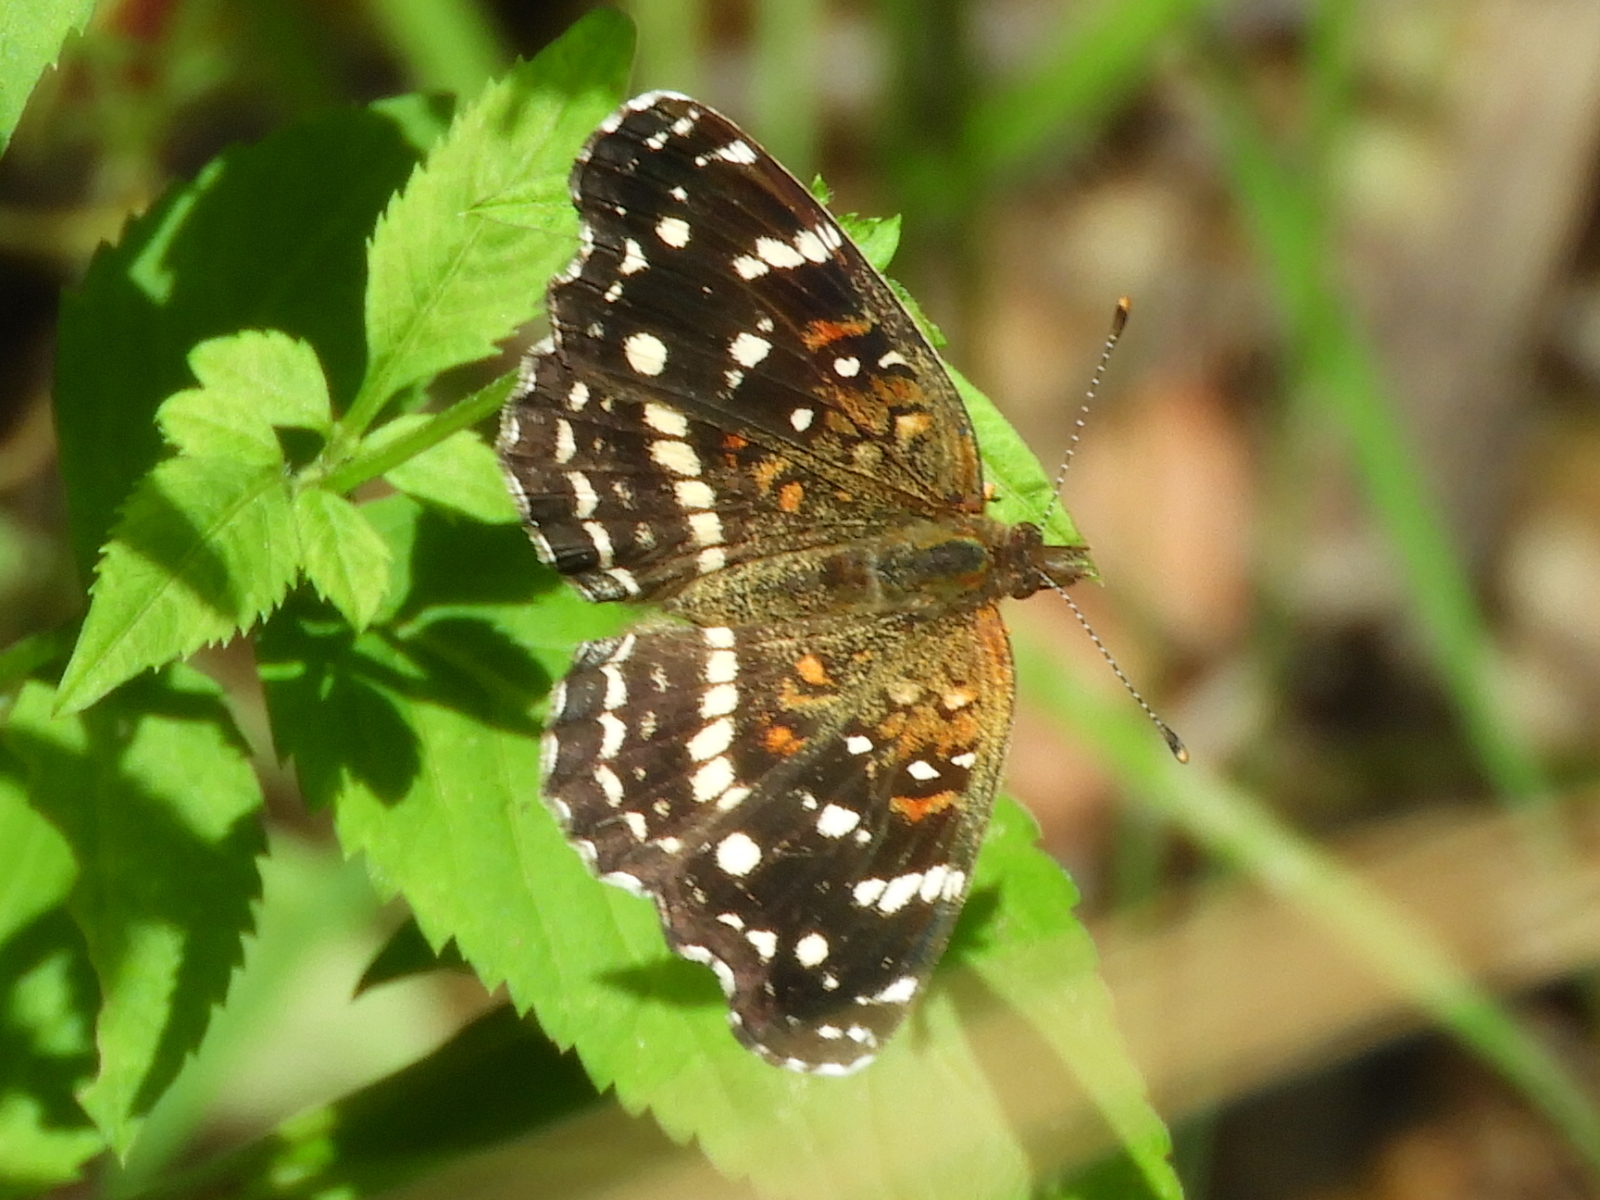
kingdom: Animalia
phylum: Arthropoda
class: Insecta
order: Lepidoptera
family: Nymphalidae
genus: Anthanassa
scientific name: Anthanassa texana
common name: Texan crescent
